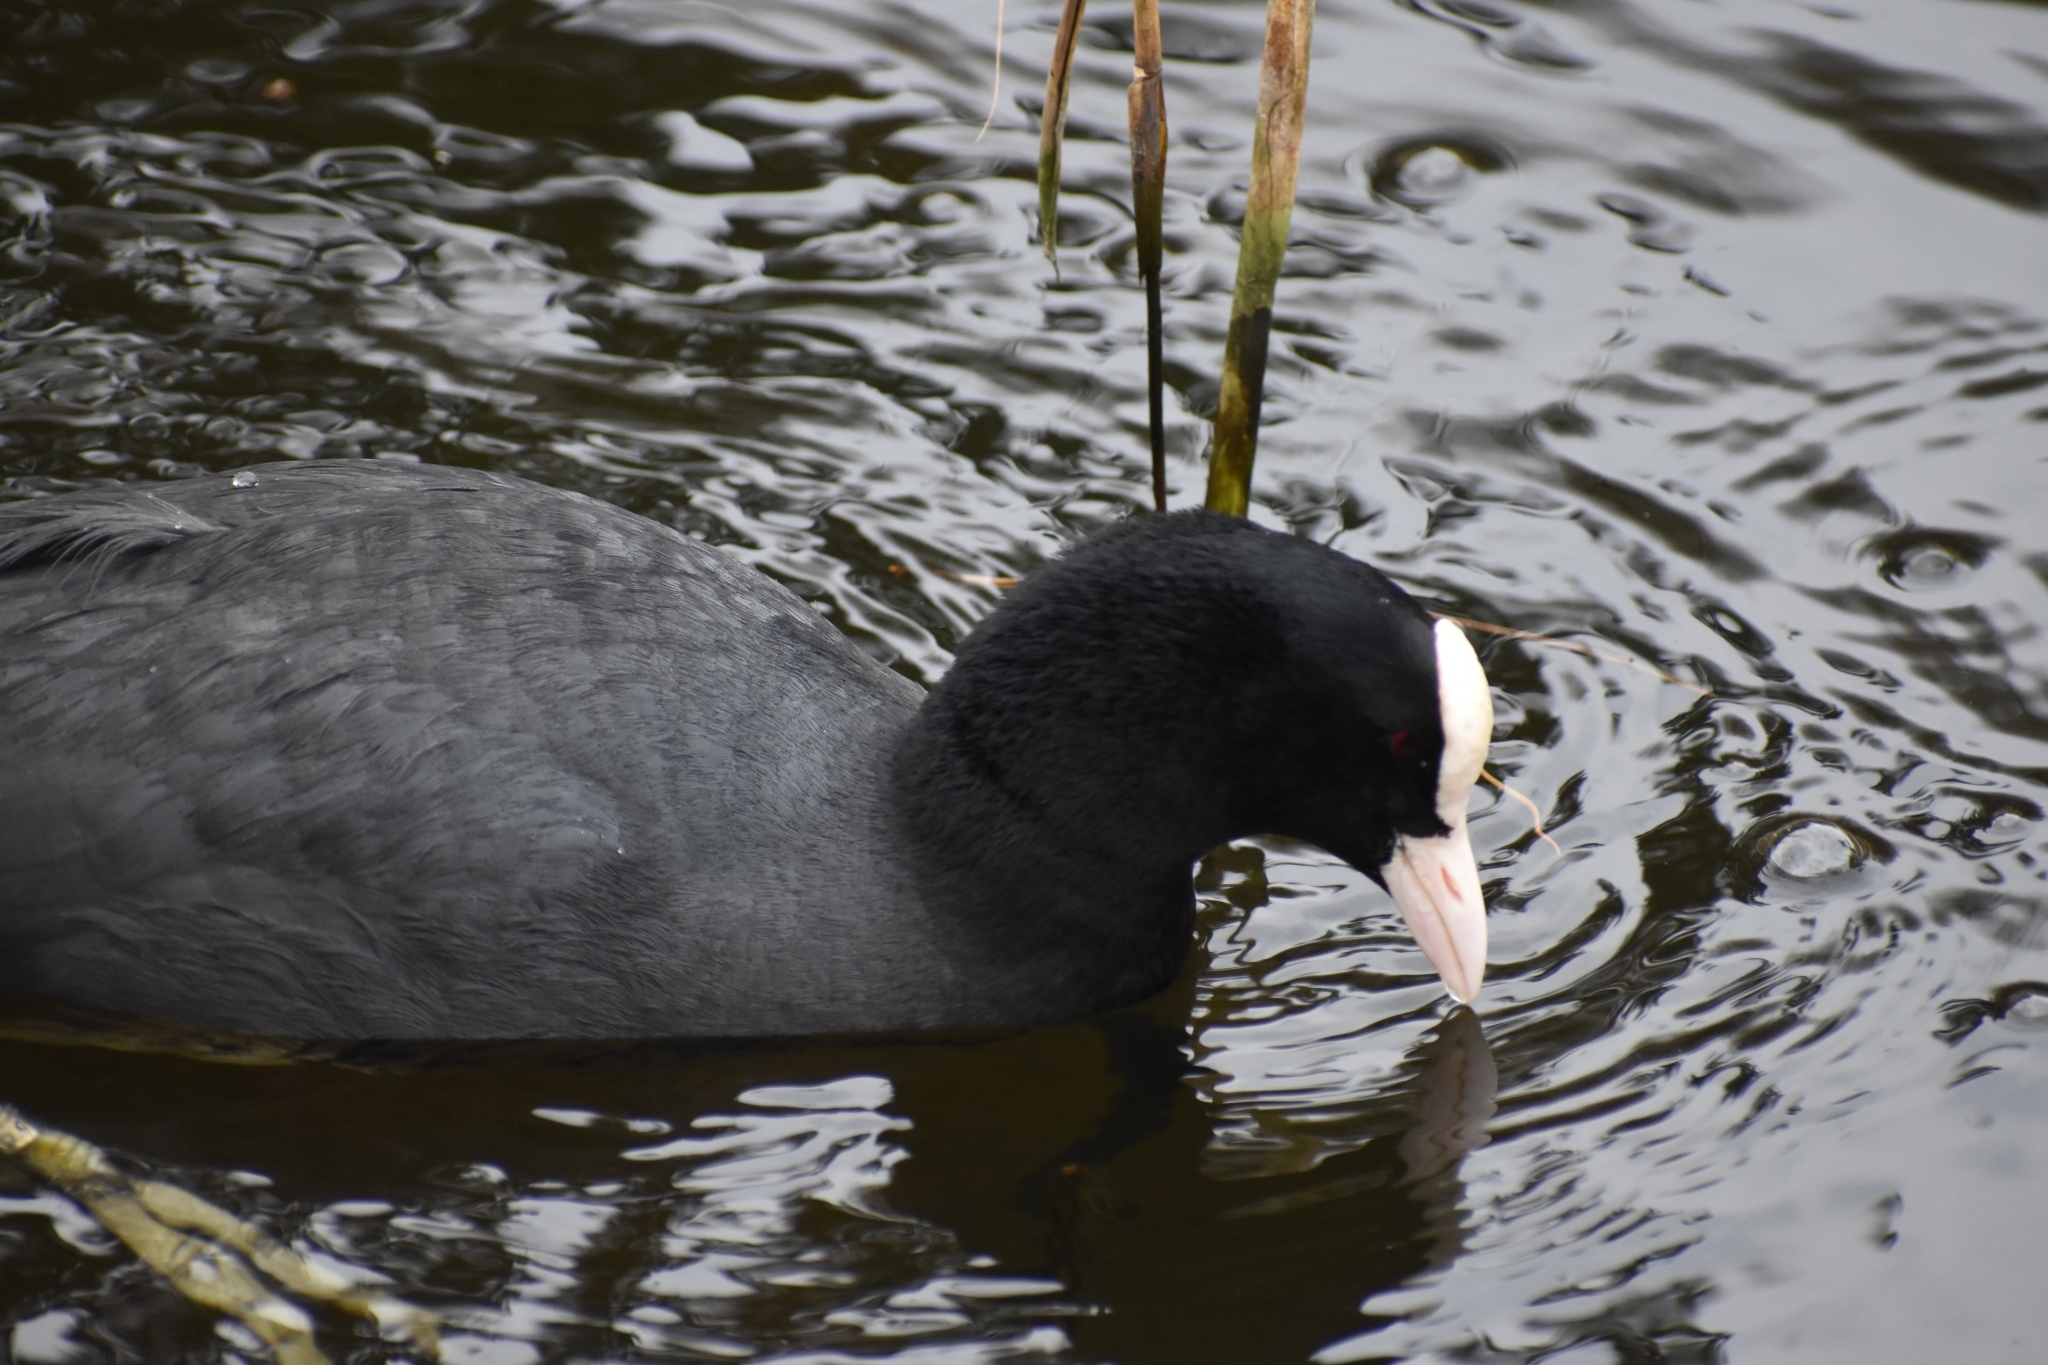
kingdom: Animalia
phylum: Chordata
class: Aves
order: Gruiformes
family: Rallidae
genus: Fulica
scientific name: Fulica atra
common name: Eurasian coot
